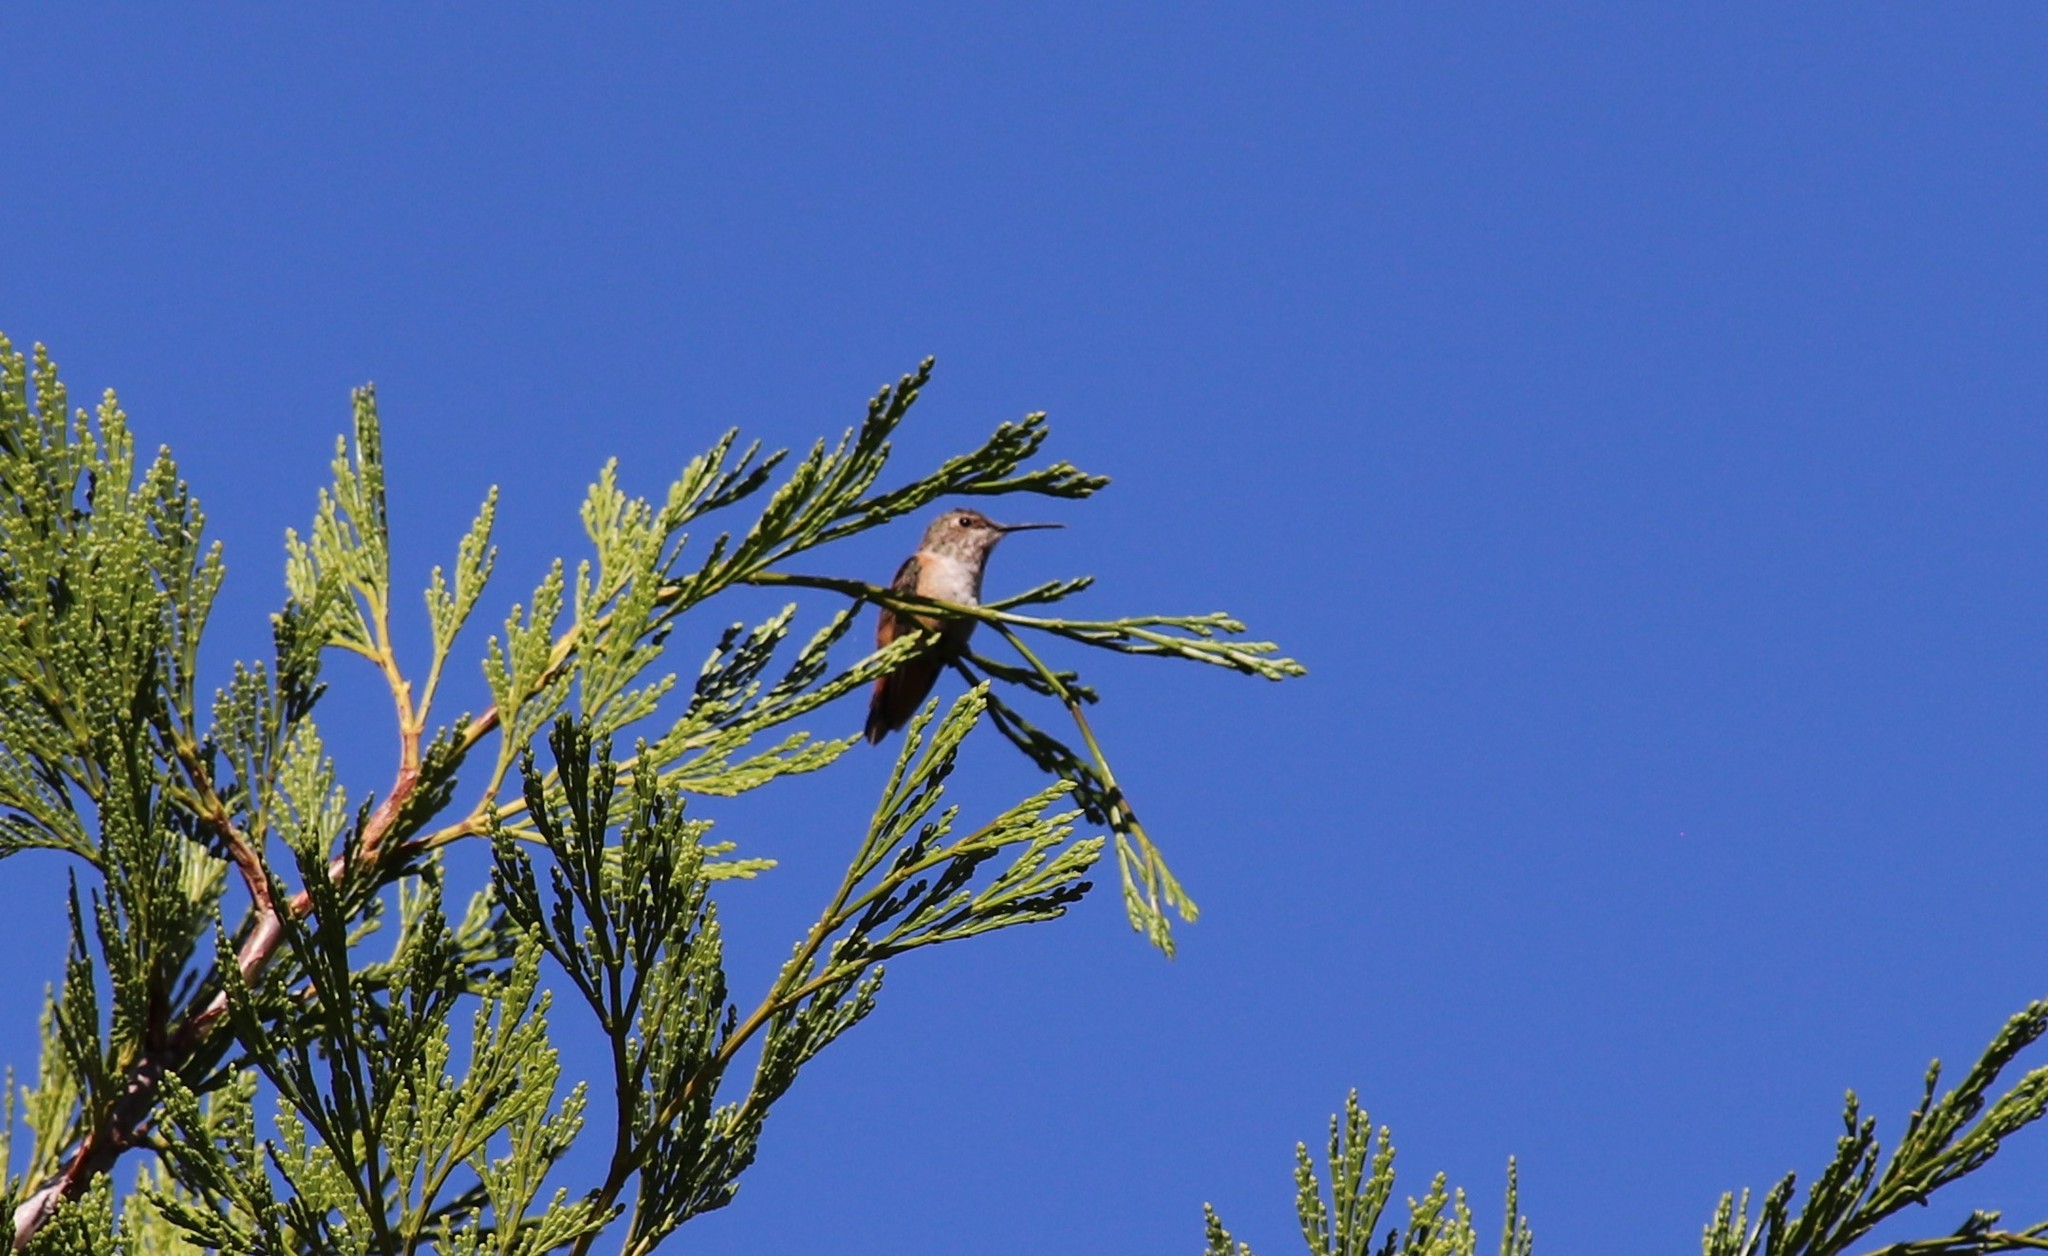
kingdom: Animalia
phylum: Chordata
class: Aves
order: Apodiformes
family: Trochilidae
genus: Selasphorus
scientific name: Selasphorus
